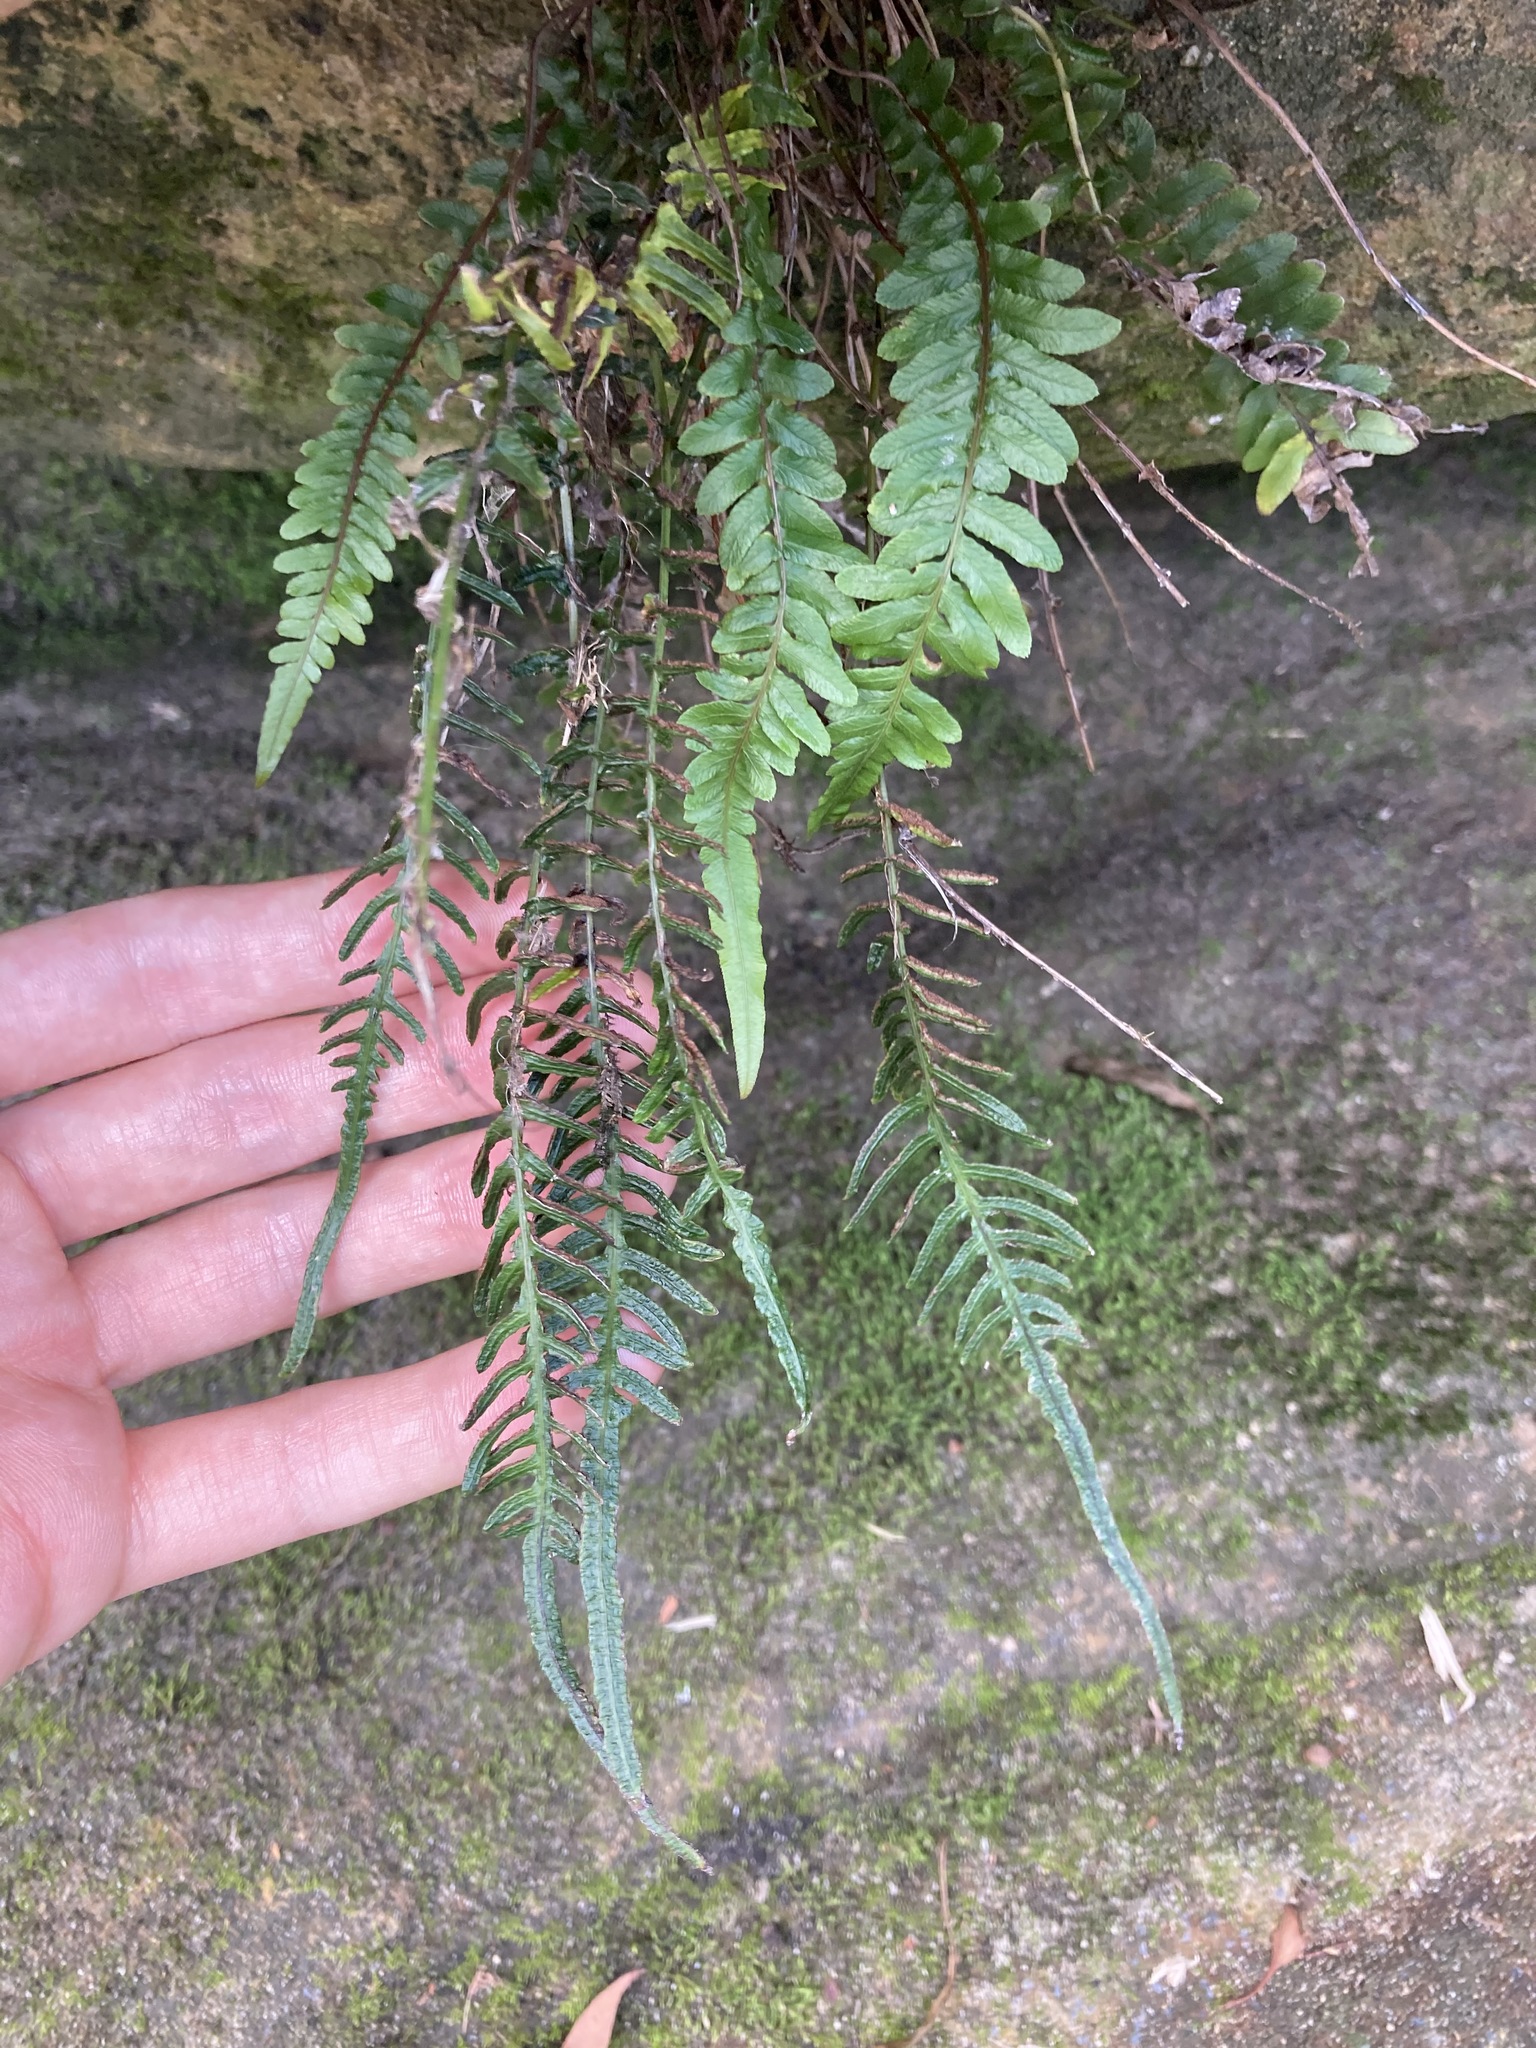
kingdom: Plantae
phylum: Tracheophyta
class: Polypodiopsida
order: Polypodiales
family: Blechnaceae
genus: Doodia
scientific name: Doodia caudata
